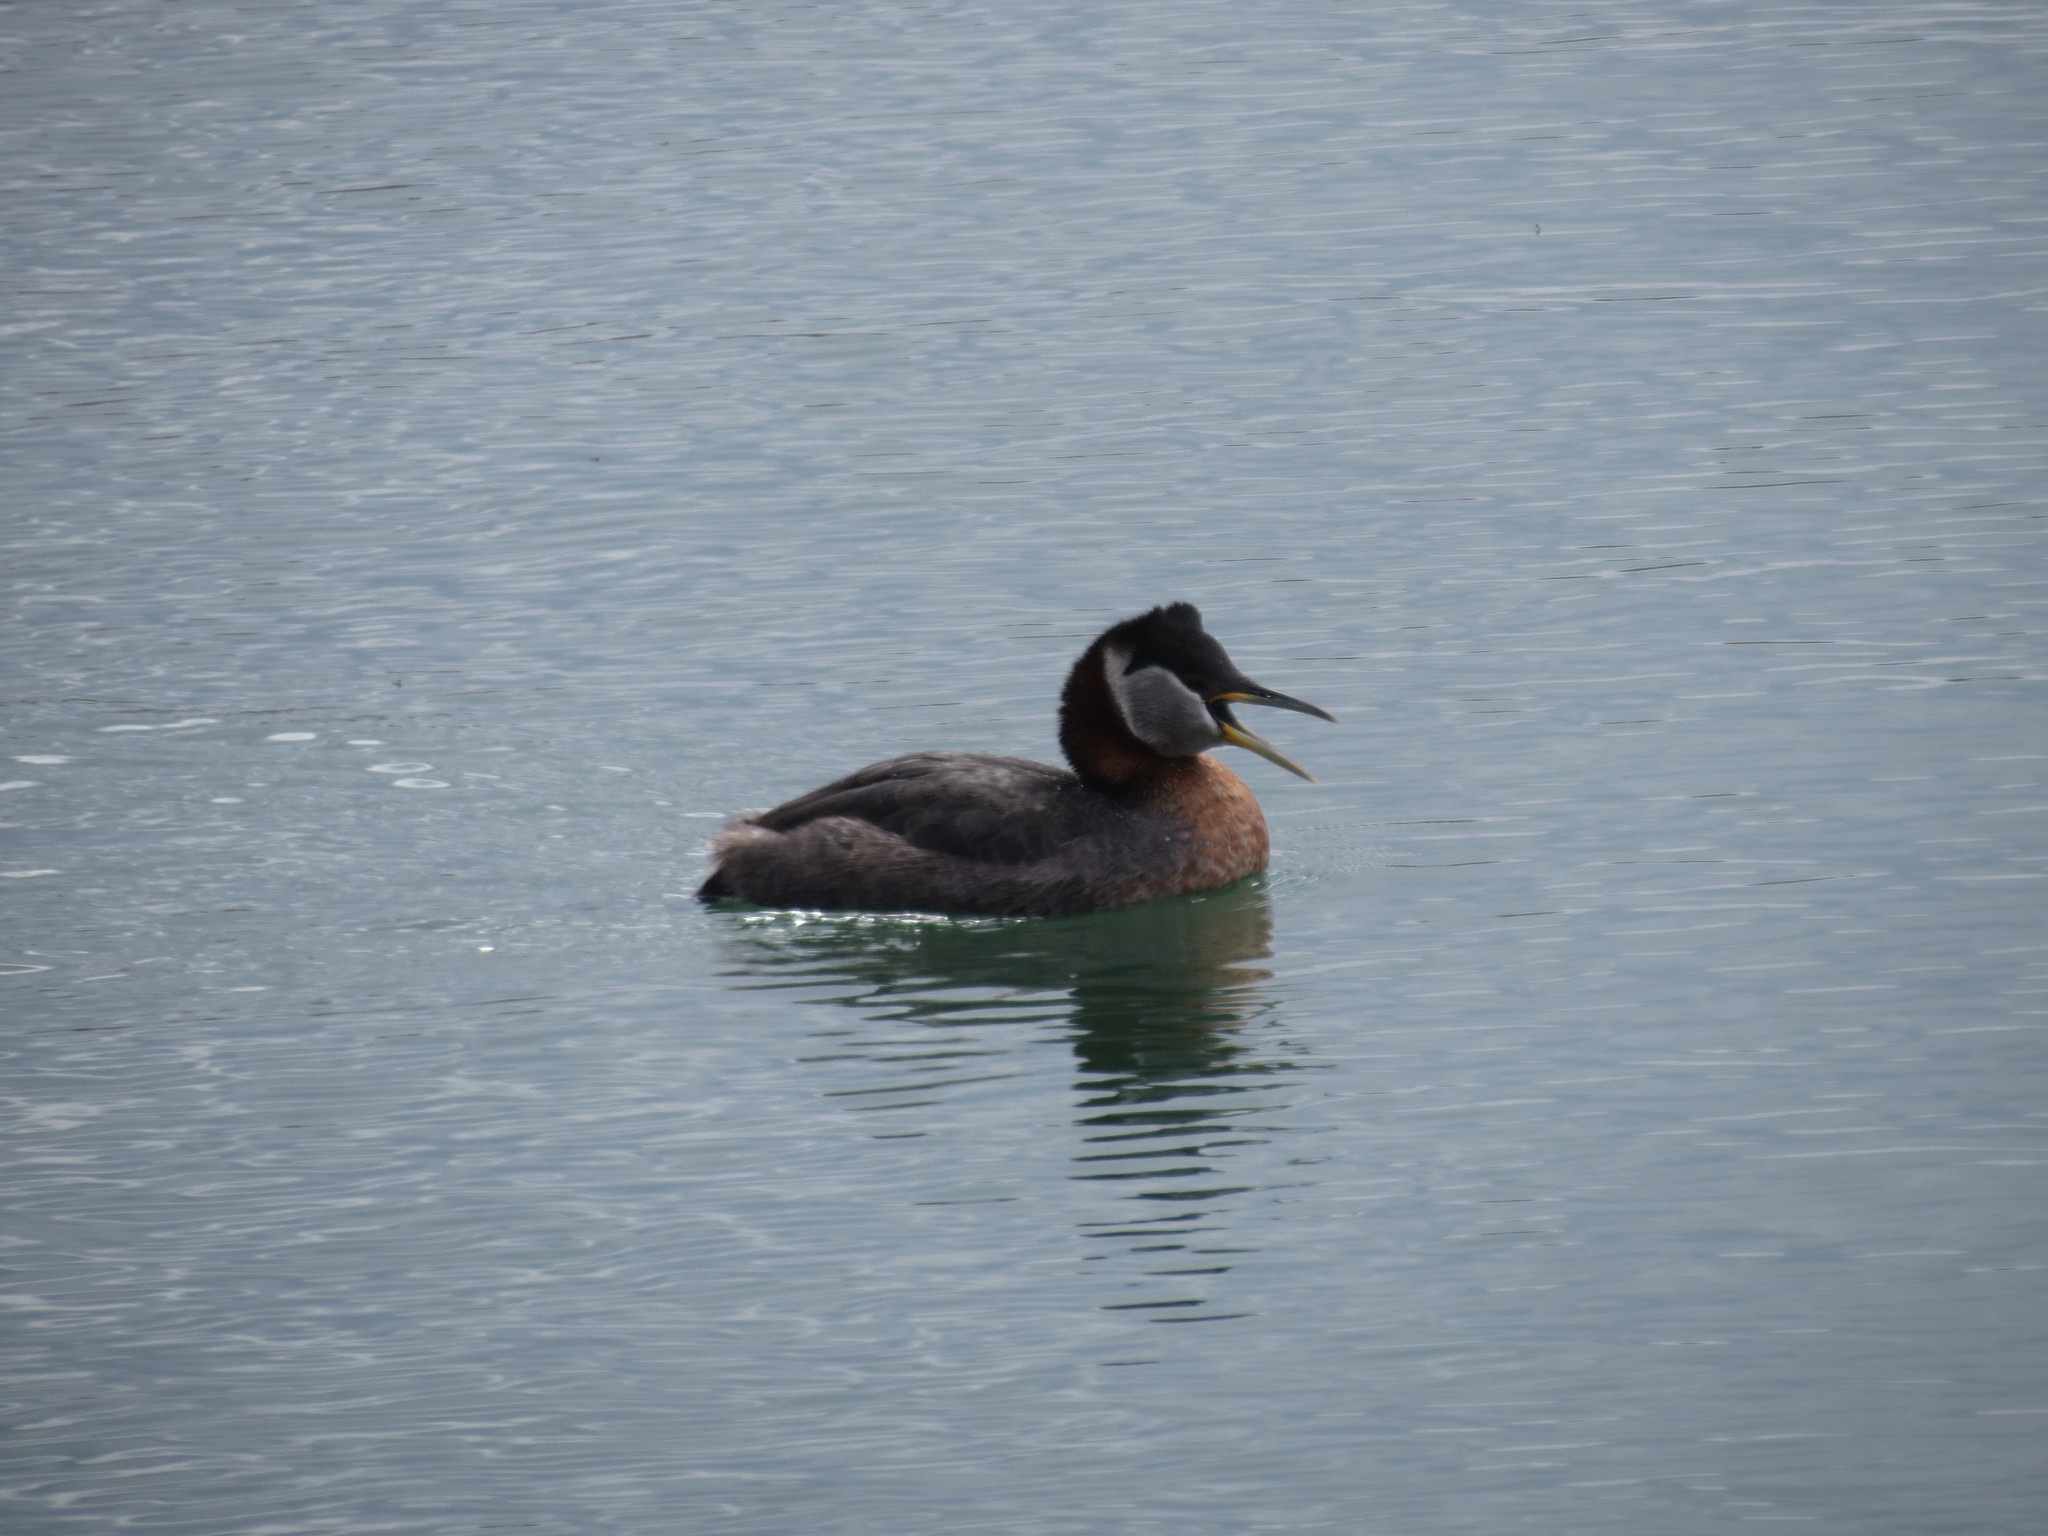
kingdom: Animalia
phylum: Chordata
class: Aves
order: Podicipediformes
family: Podicipedidae
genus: Podiceps
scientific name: Podiceps grisegena
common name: Red-necked grebe
